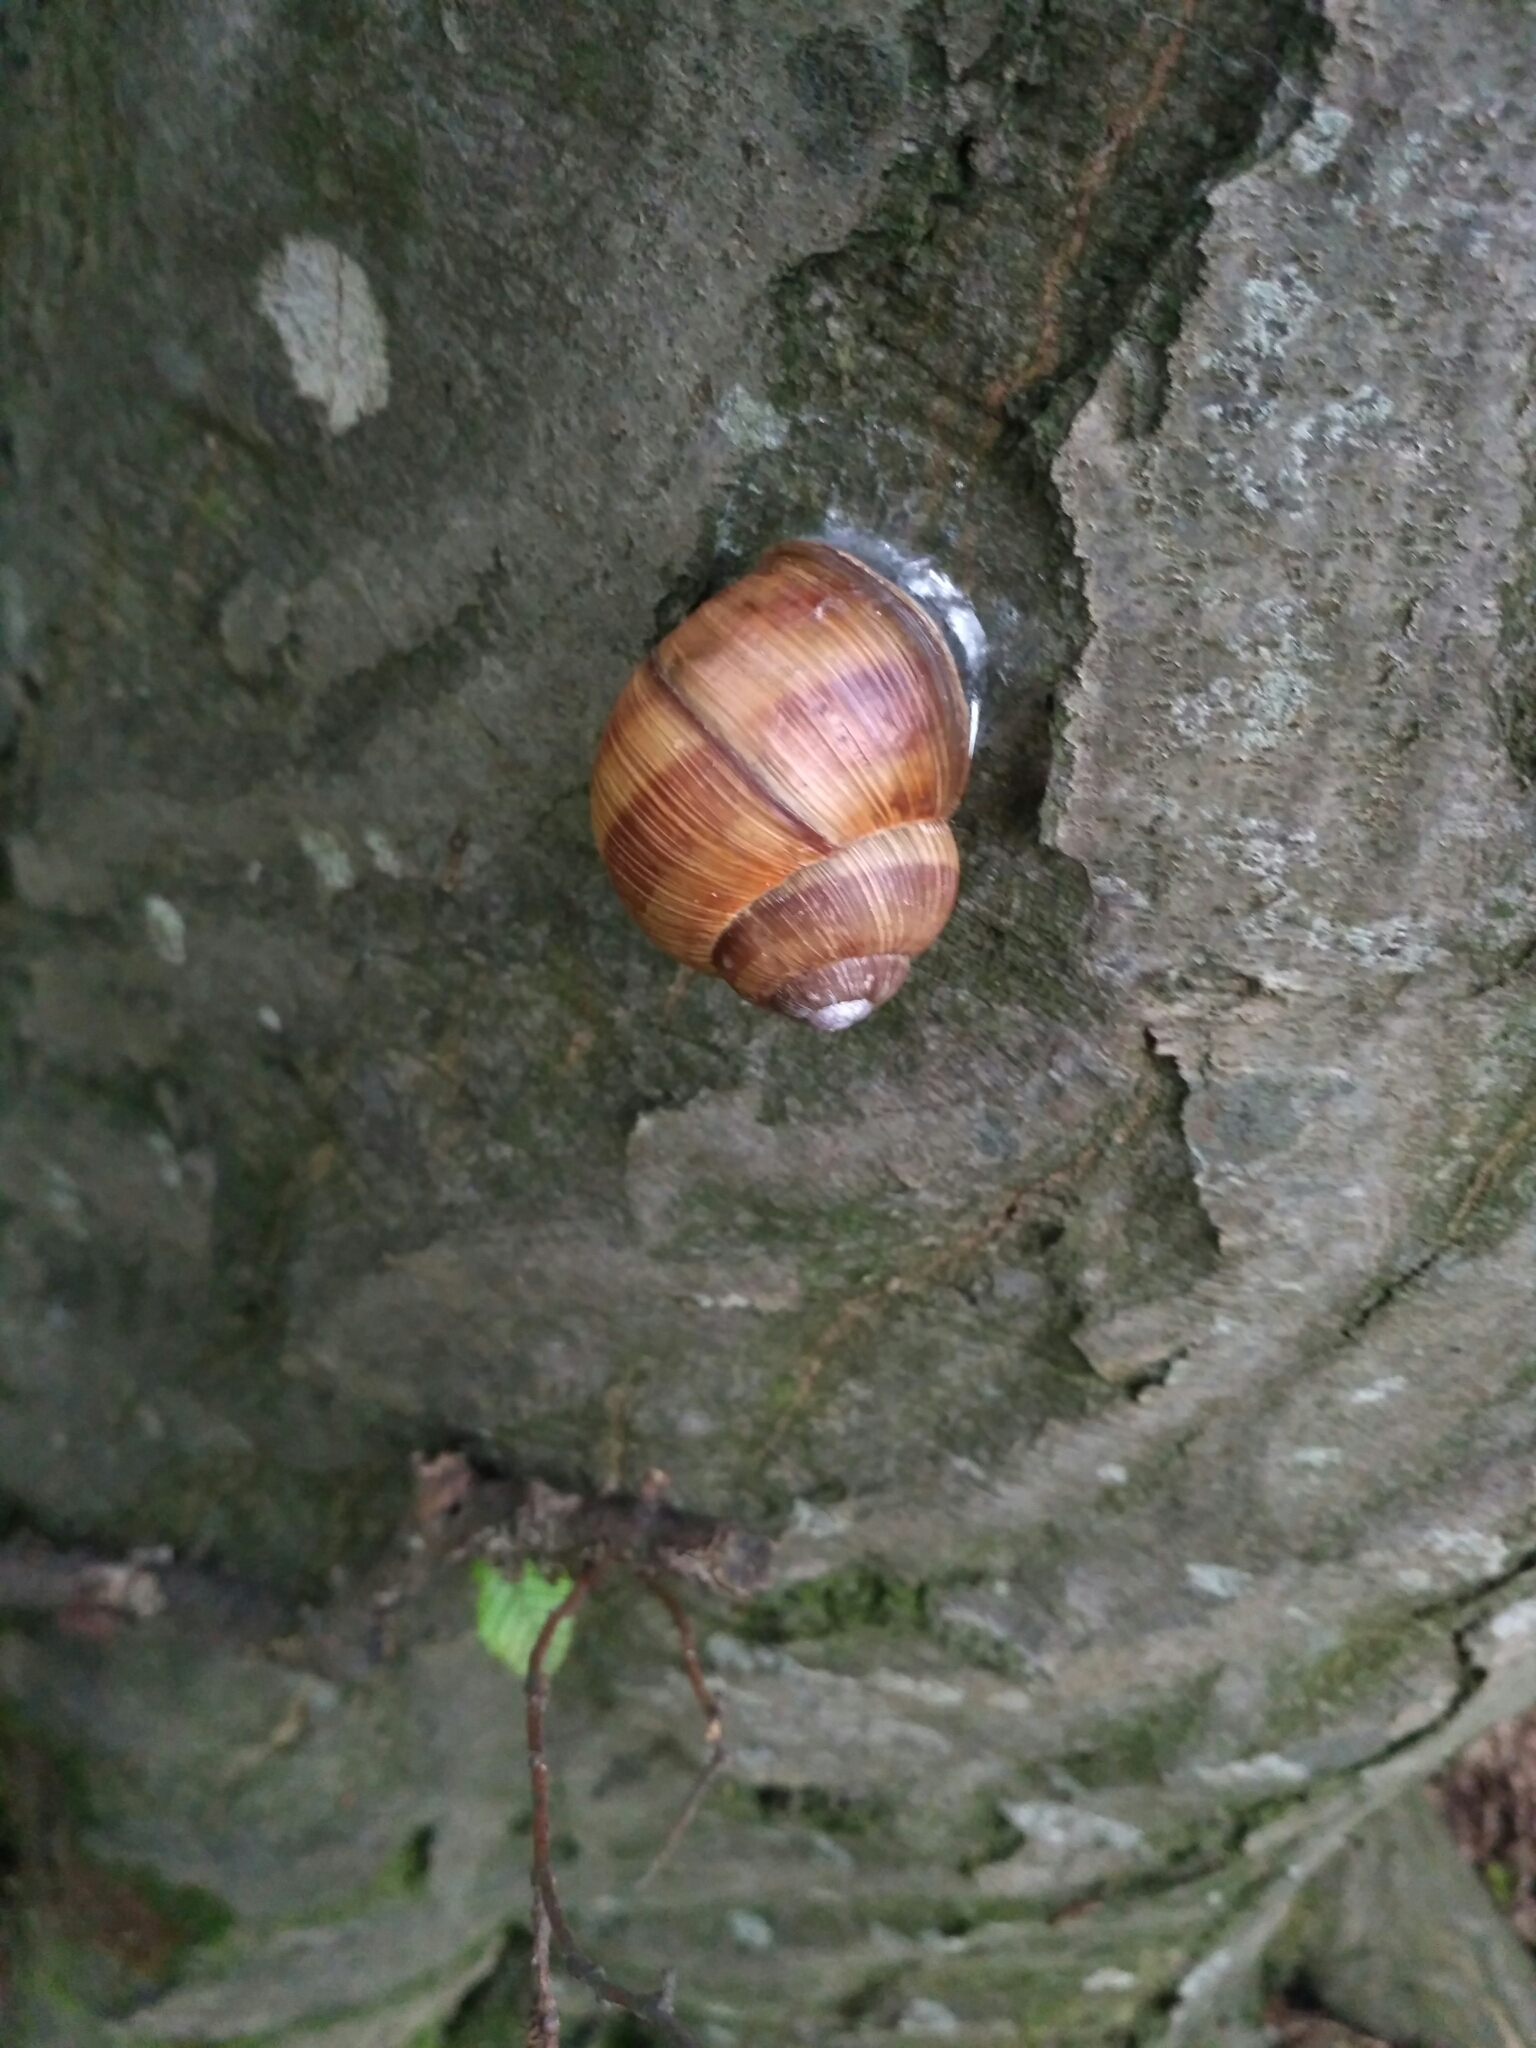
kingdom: Animalia
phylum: Mollusca
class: Gastropoda
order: Stylommatophora
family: Helicidae
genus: Helix
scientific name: Helix pomatia
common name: Roman snail
